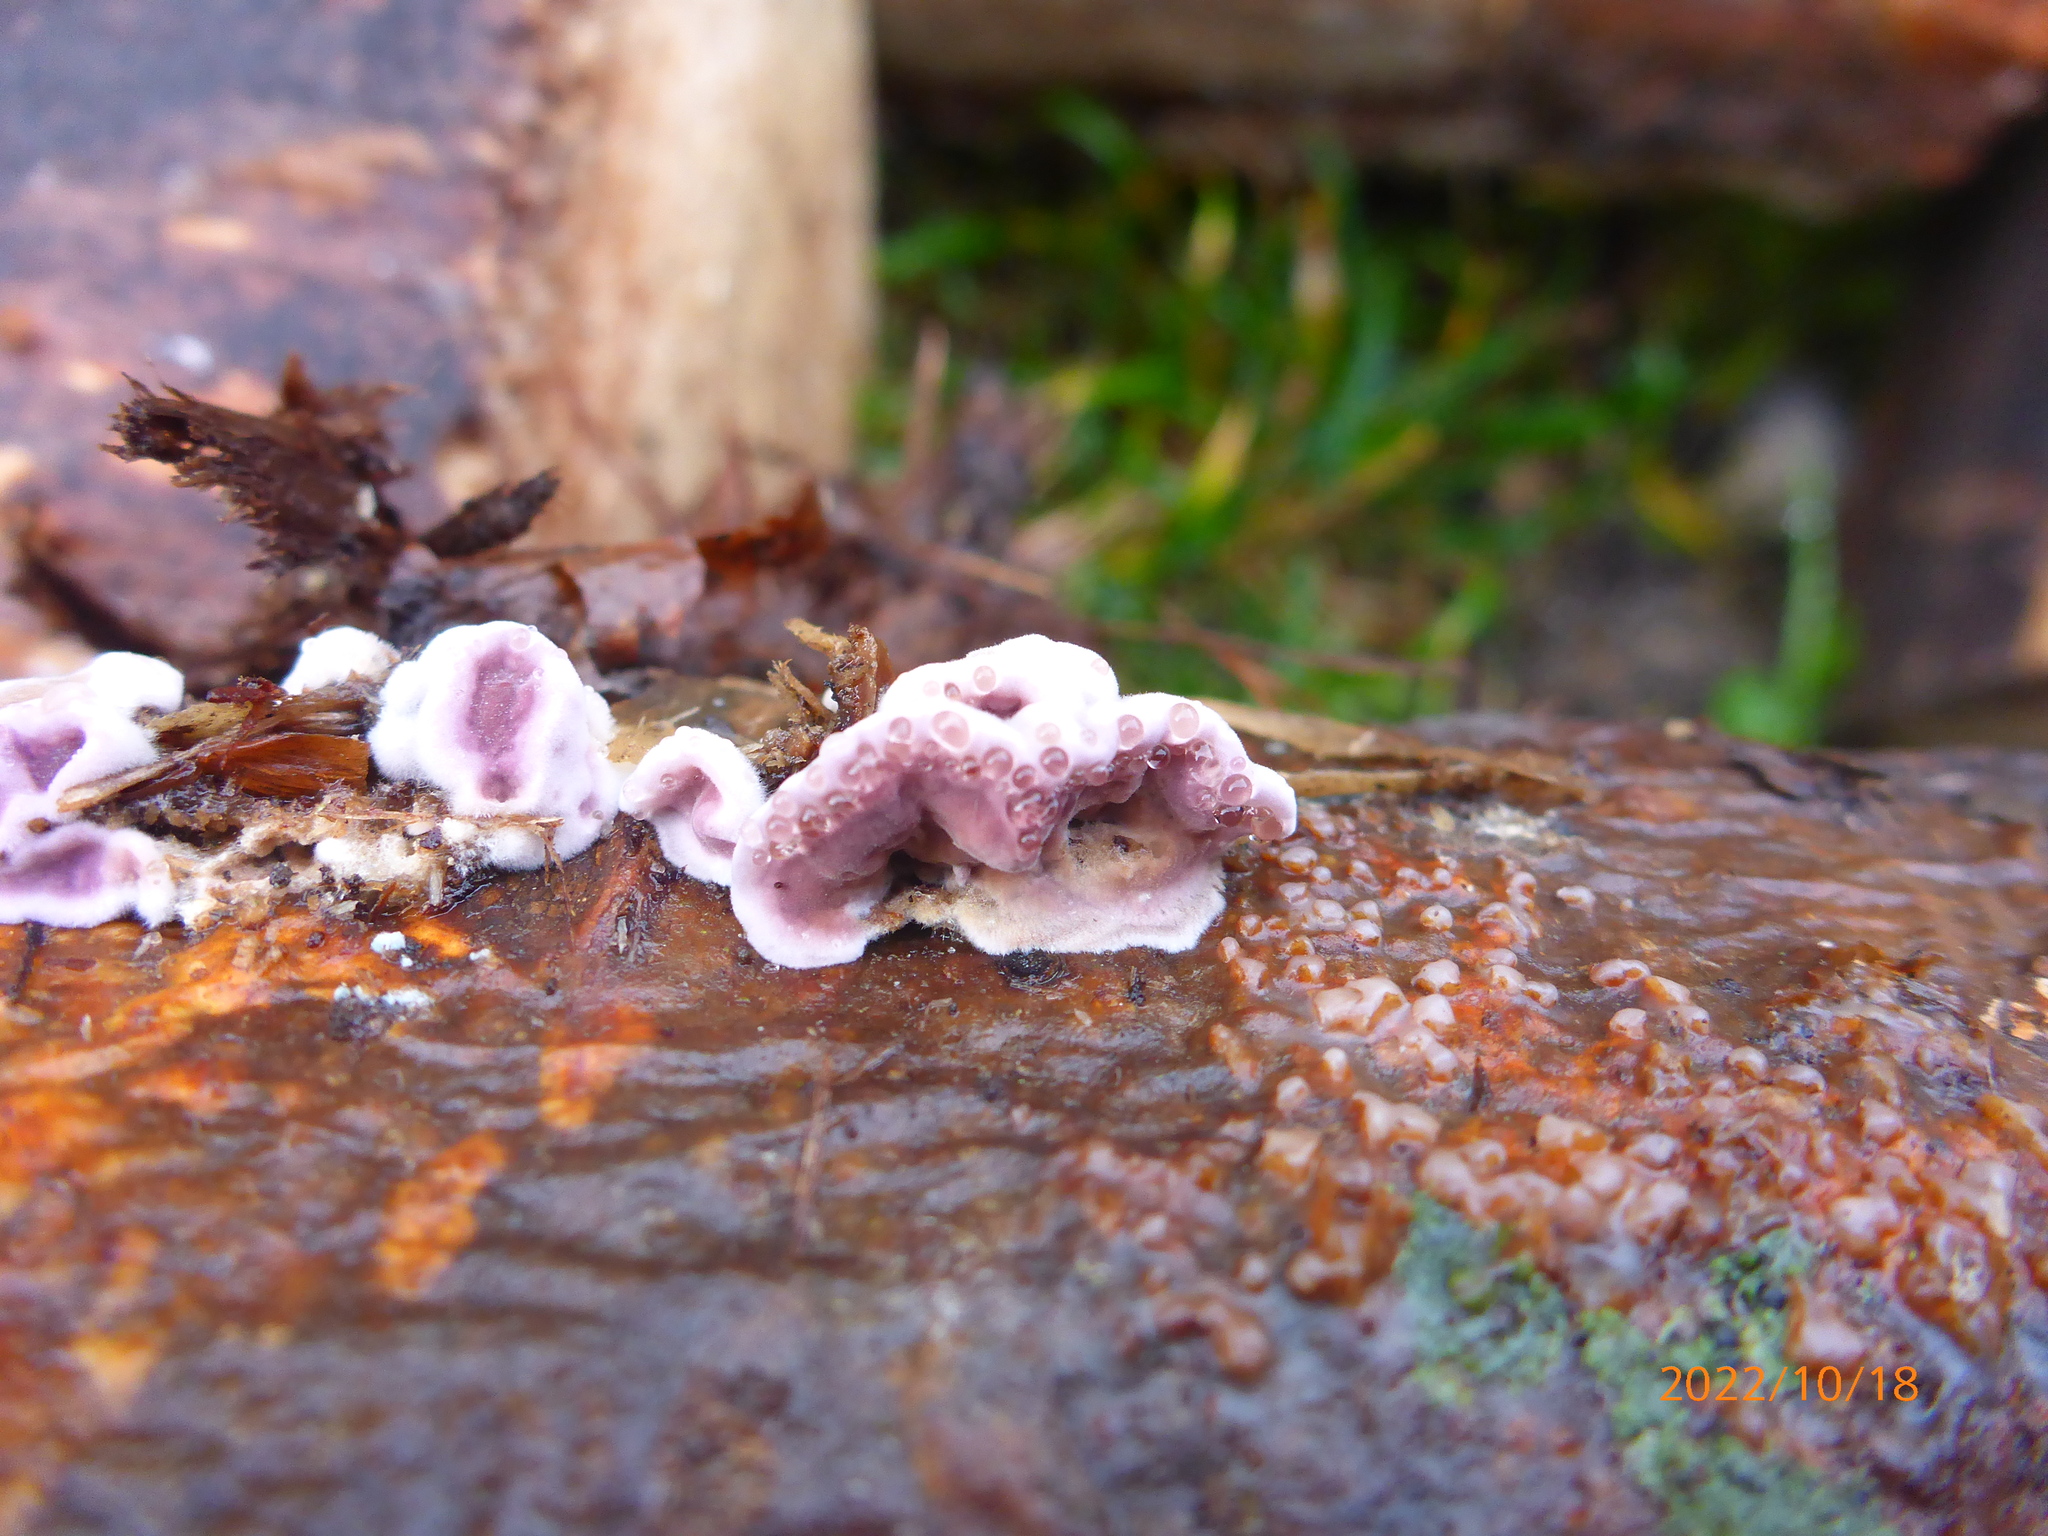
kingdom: Fungi
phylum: Basidiomycota
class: Agaricomycetes
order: Agaricales
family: Cyphellaceae
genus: Chondrostereum
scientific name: Chondrostereum purpureum
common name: Silver leaf disease
